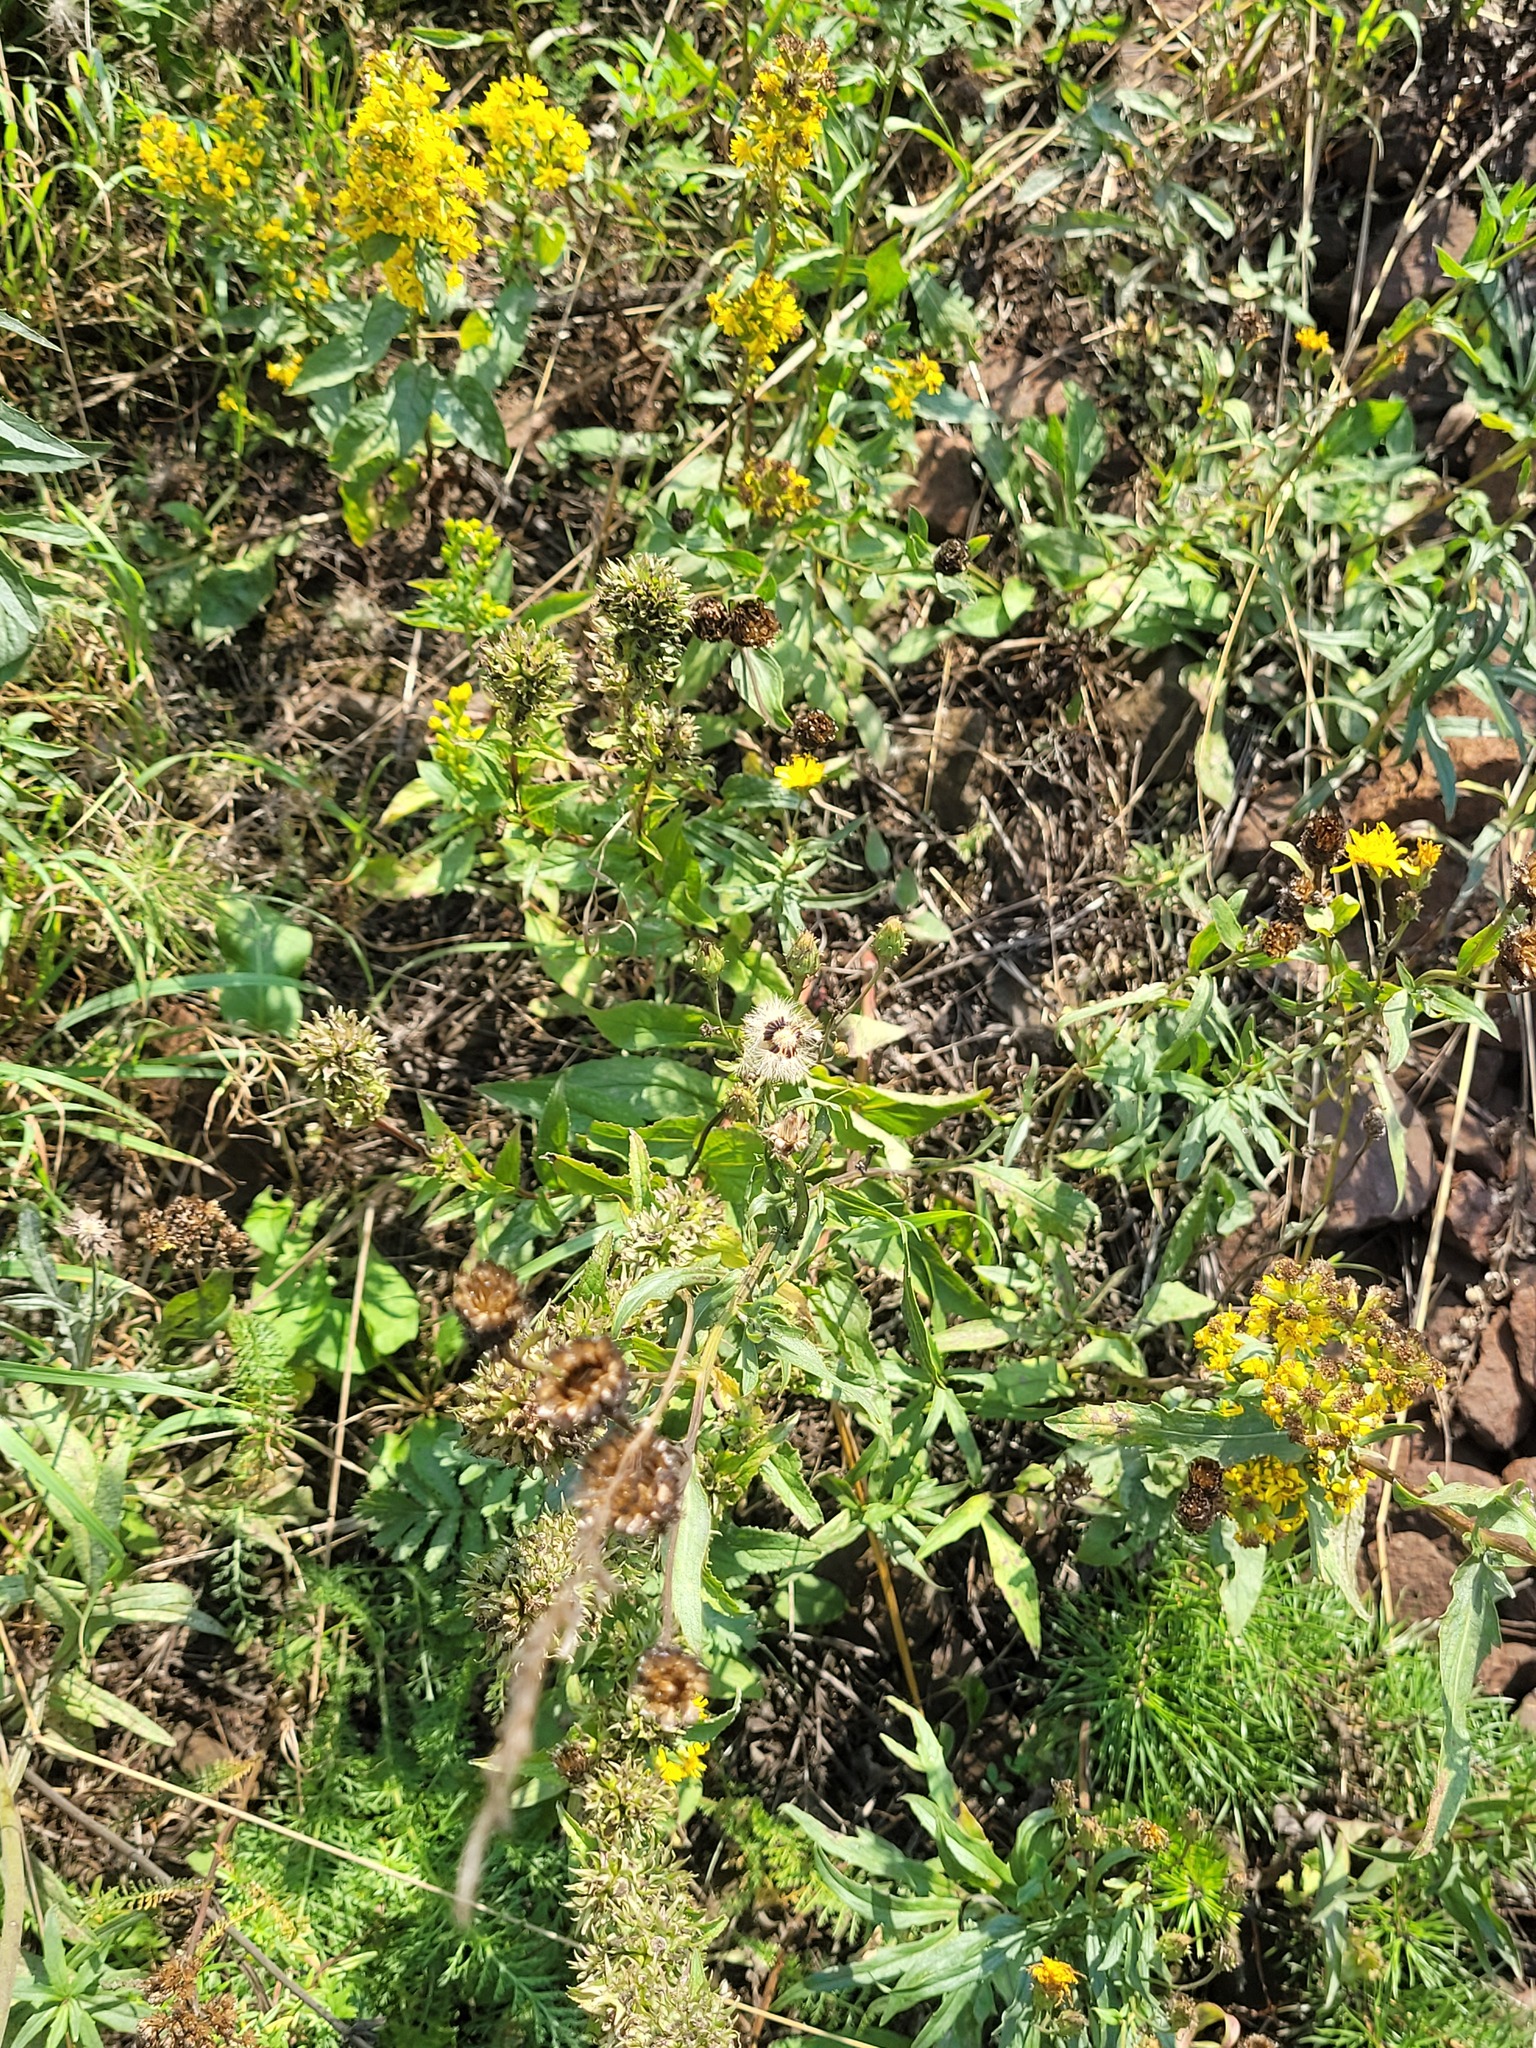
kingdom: Plantae
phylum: Tracheophyta
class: Magnoliopsida
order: Asterales
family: Campanulaceae
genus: Campanula
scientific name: Campanula glomerata
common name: Clustered bellflower
